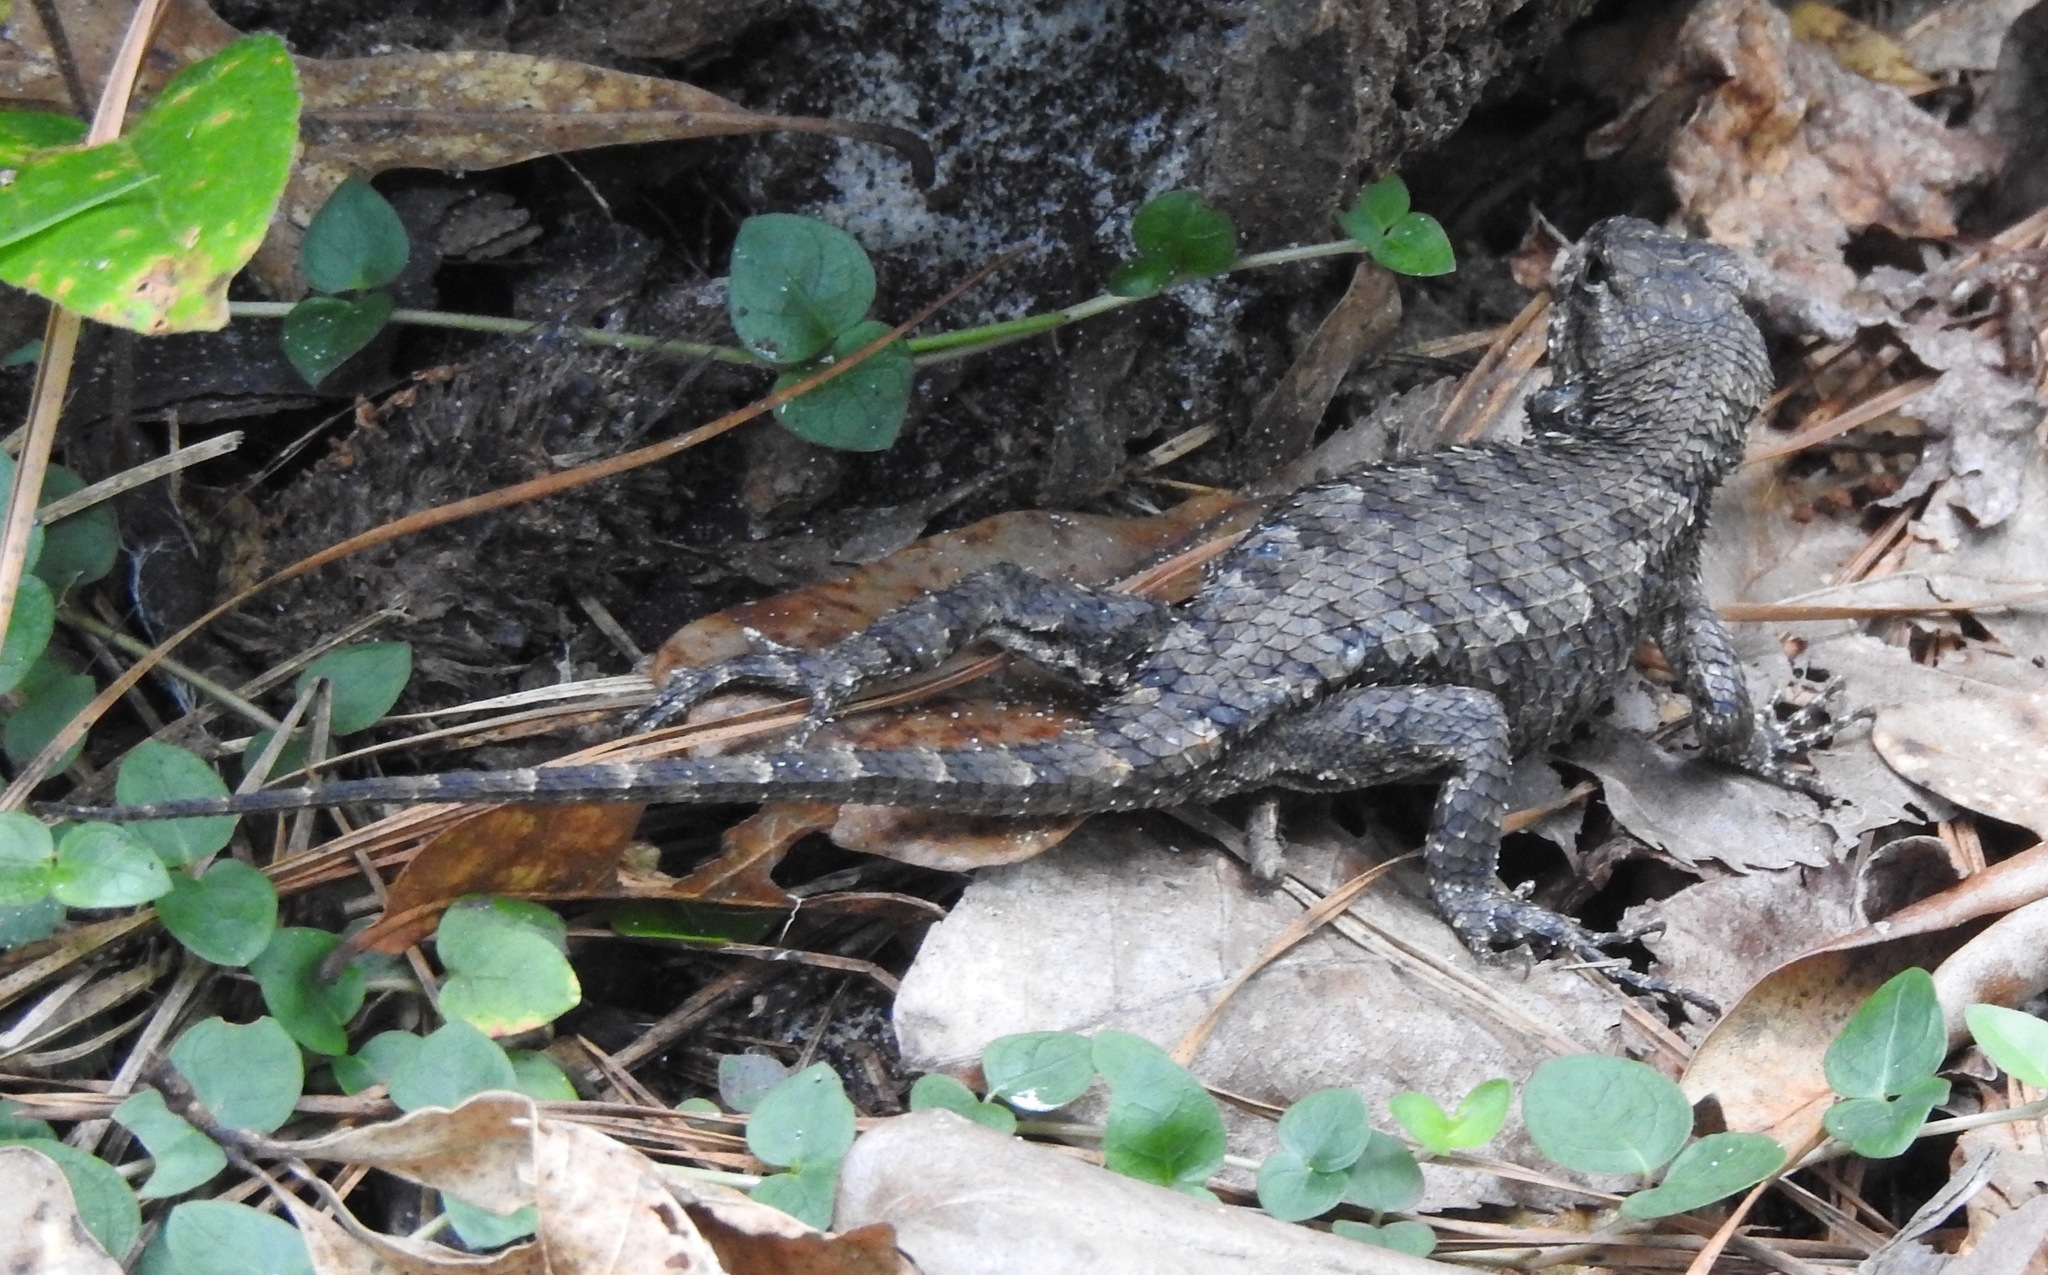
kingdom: Animalia
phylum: Chordata
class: Squamata
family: Phrynosomatidae
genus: Sceloporus
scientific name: Sceloporus undulatus
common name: Eastern fence lizard
